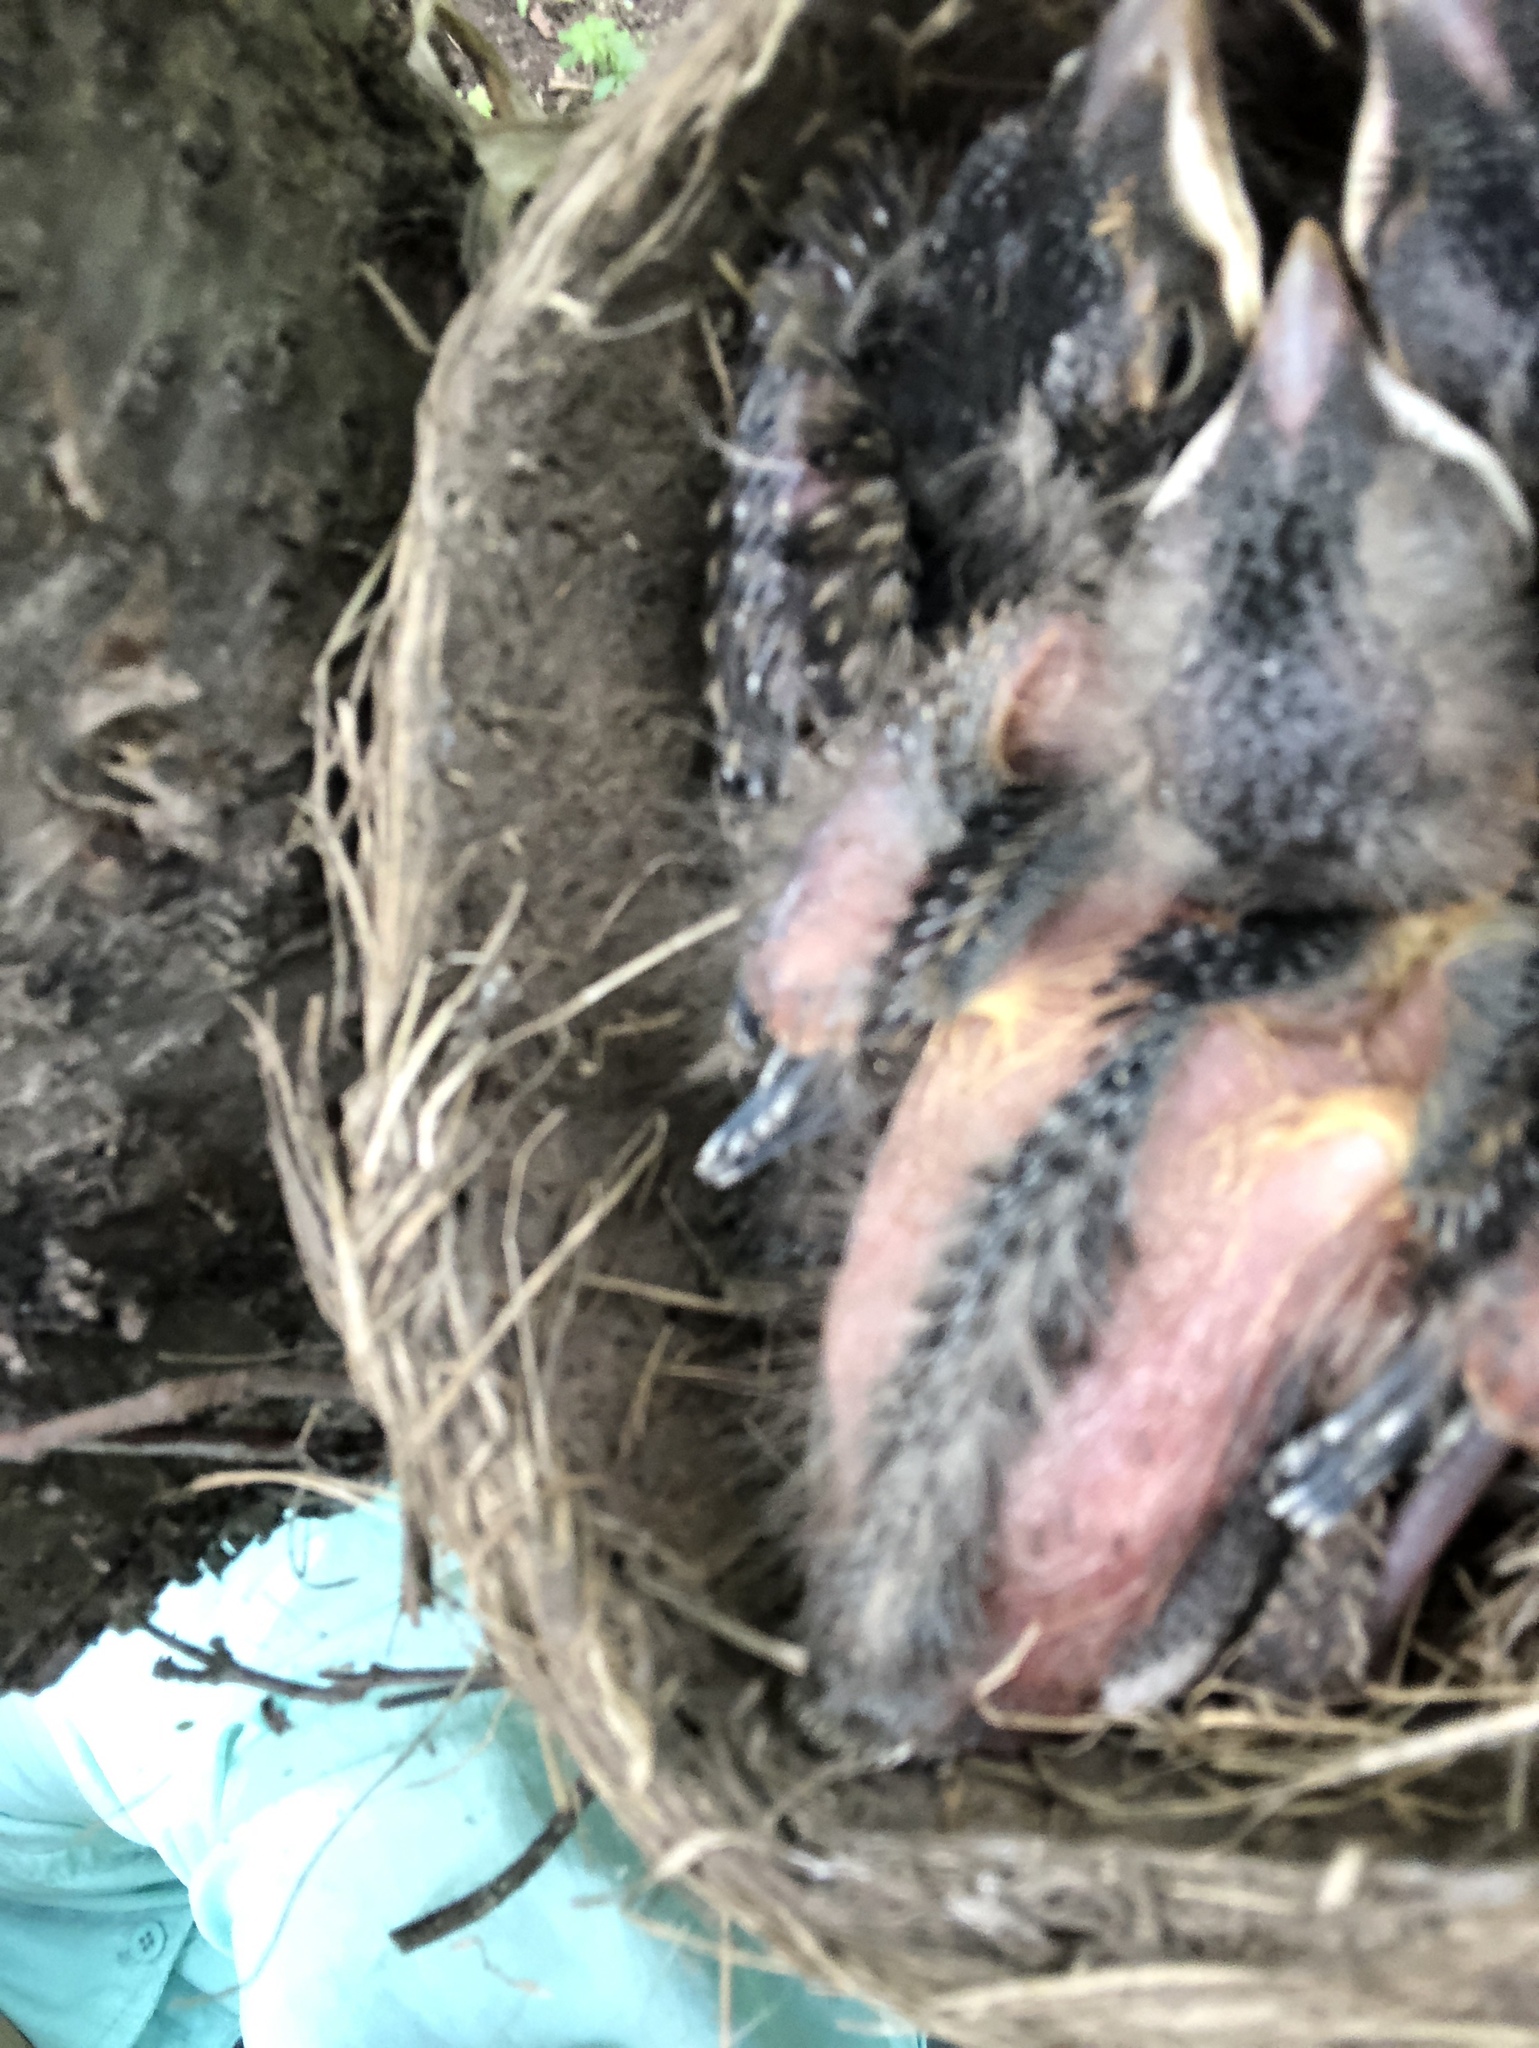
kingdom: Animalia
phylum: Chordata
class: Aves
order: Passeriformes
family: Turdidae
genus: Turdus
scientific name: Turdus migratorius
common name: American robin
